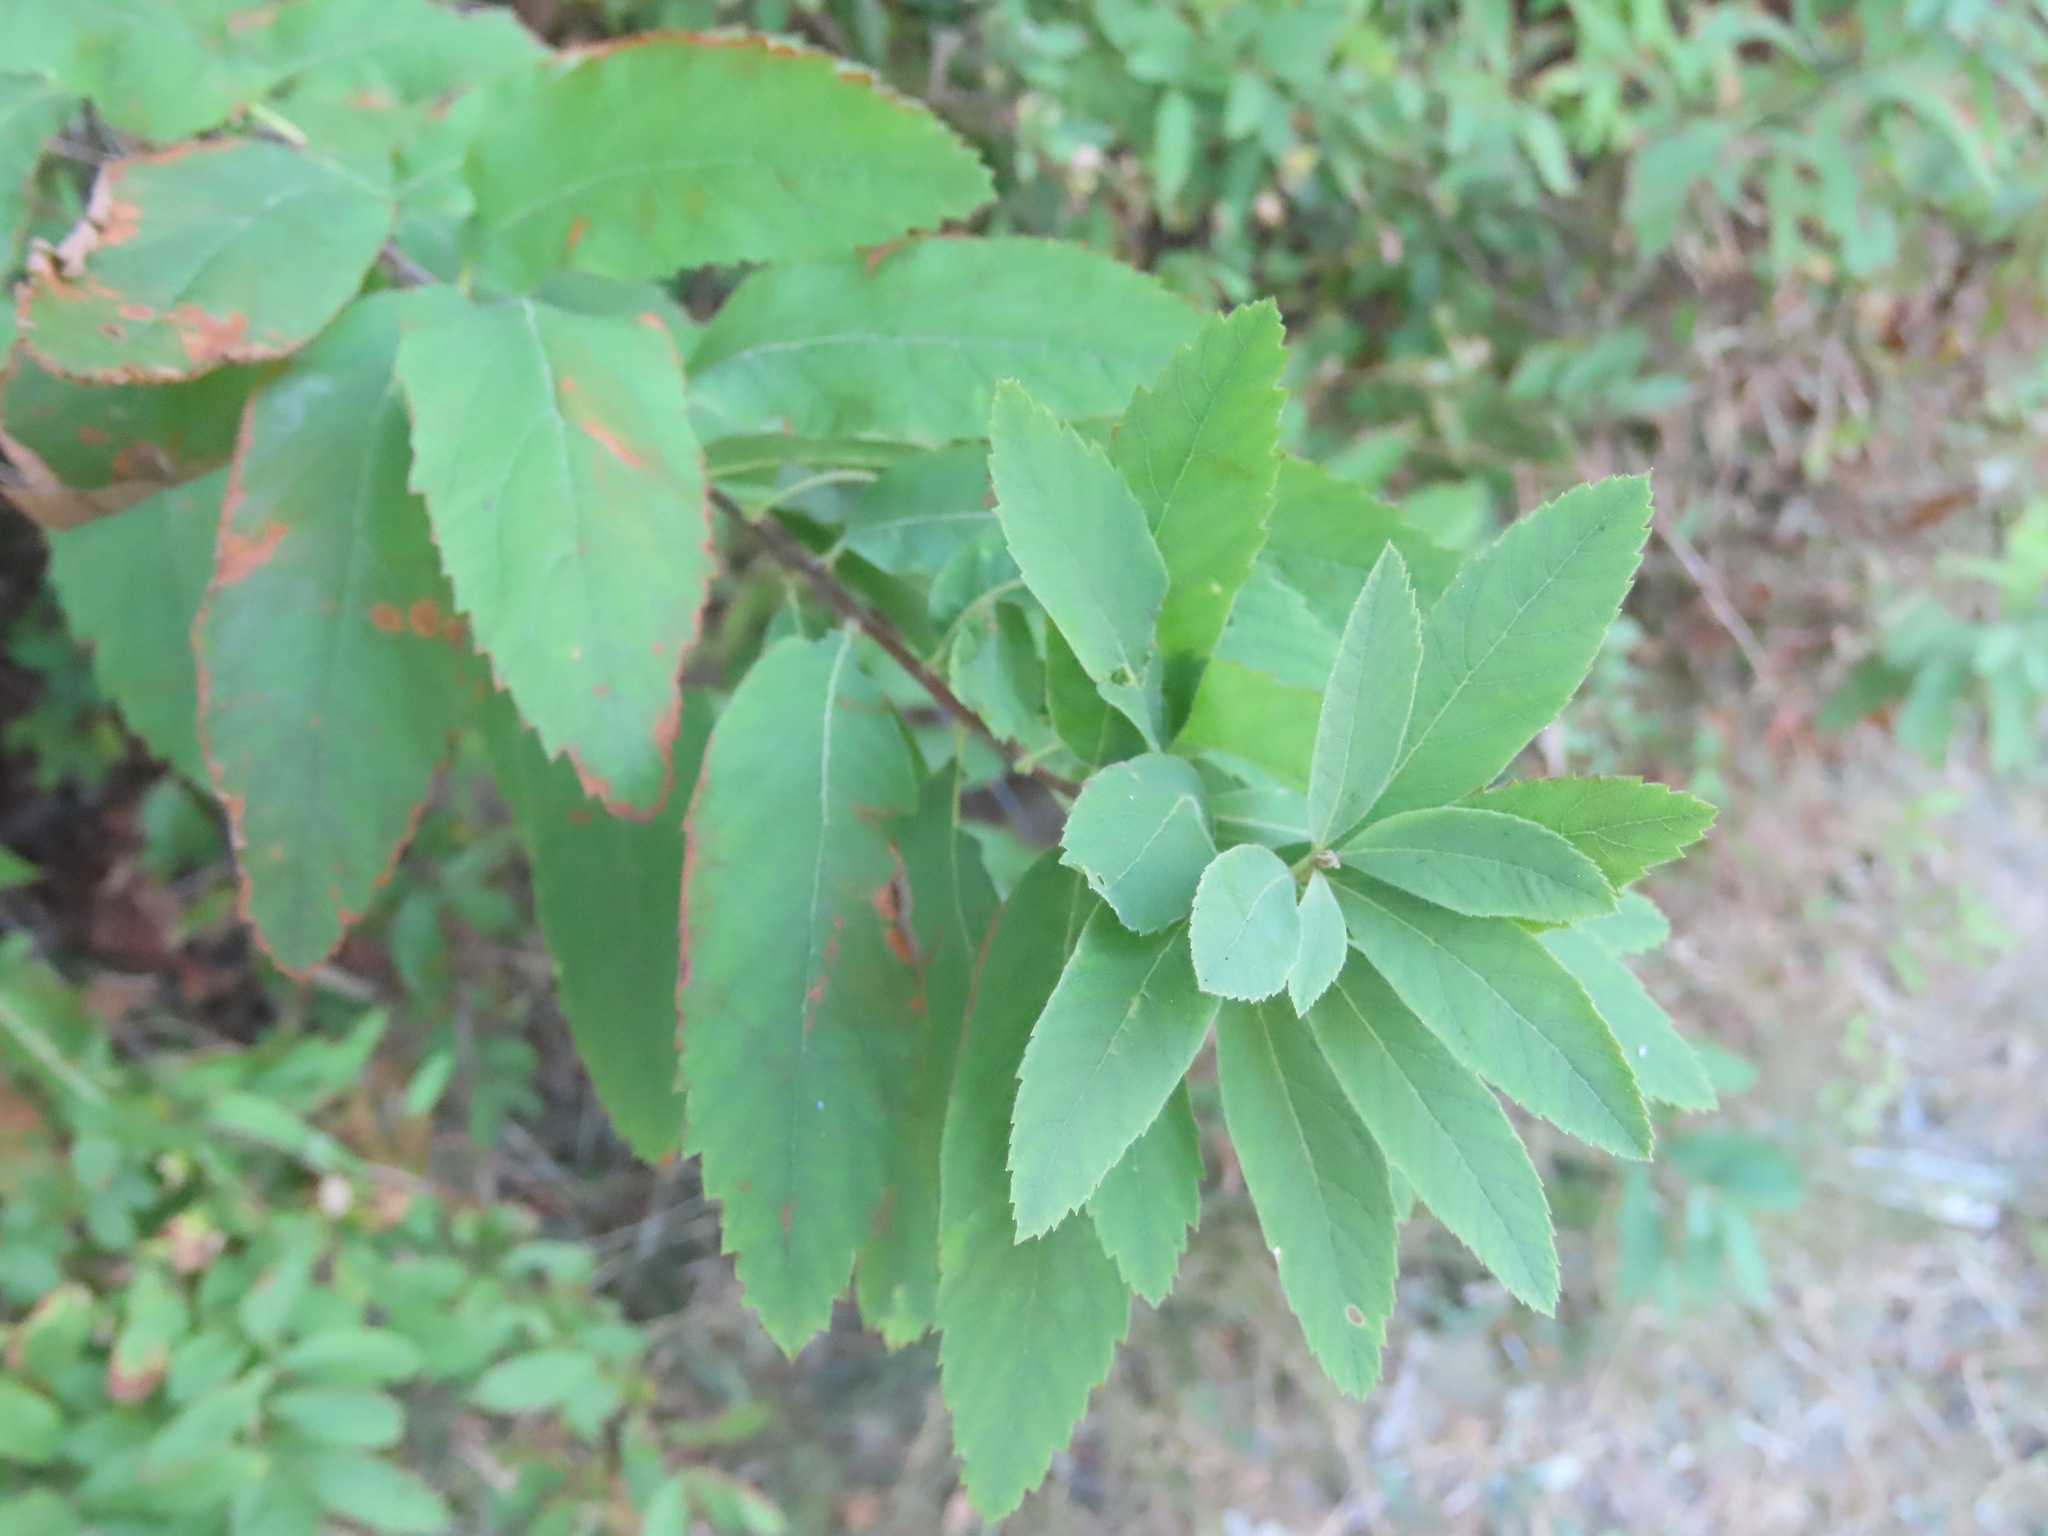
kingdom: Plantae
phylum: Tracheophyta
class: Magnoliopsida
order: Rosales
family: Rosaceae
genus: Spiraea
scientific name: Spiraea douglasii
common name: Steeplebush
